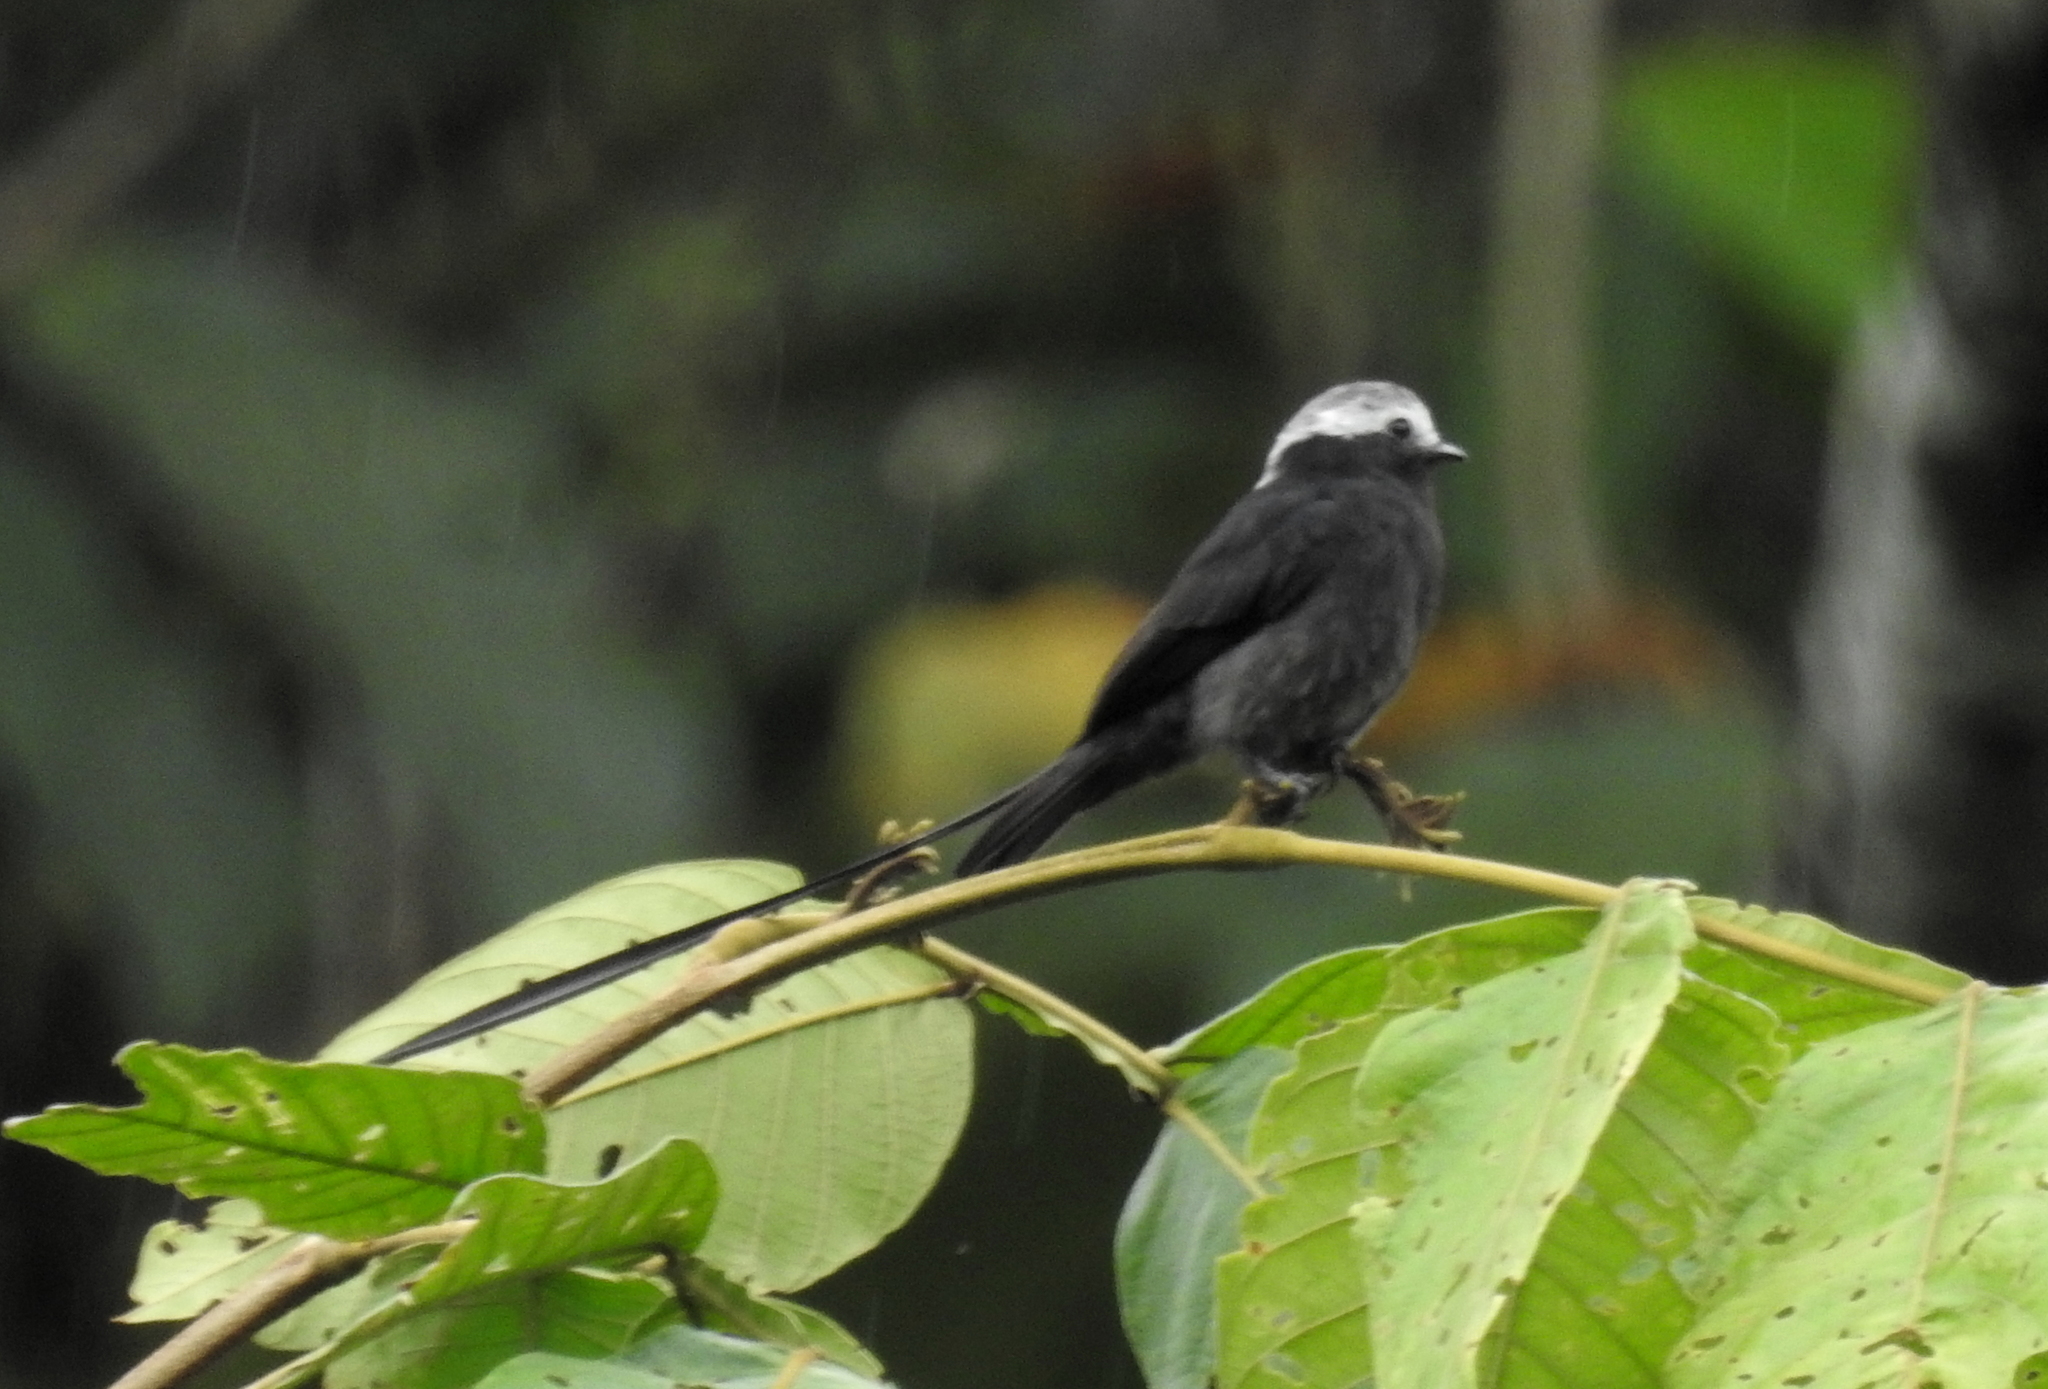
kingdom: Animalia
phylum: Chordata
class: Aves
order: Passeriformes
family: Tyrannidae
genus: Colonia
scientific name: Colonia colonus
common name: Long-tailed tyrant
